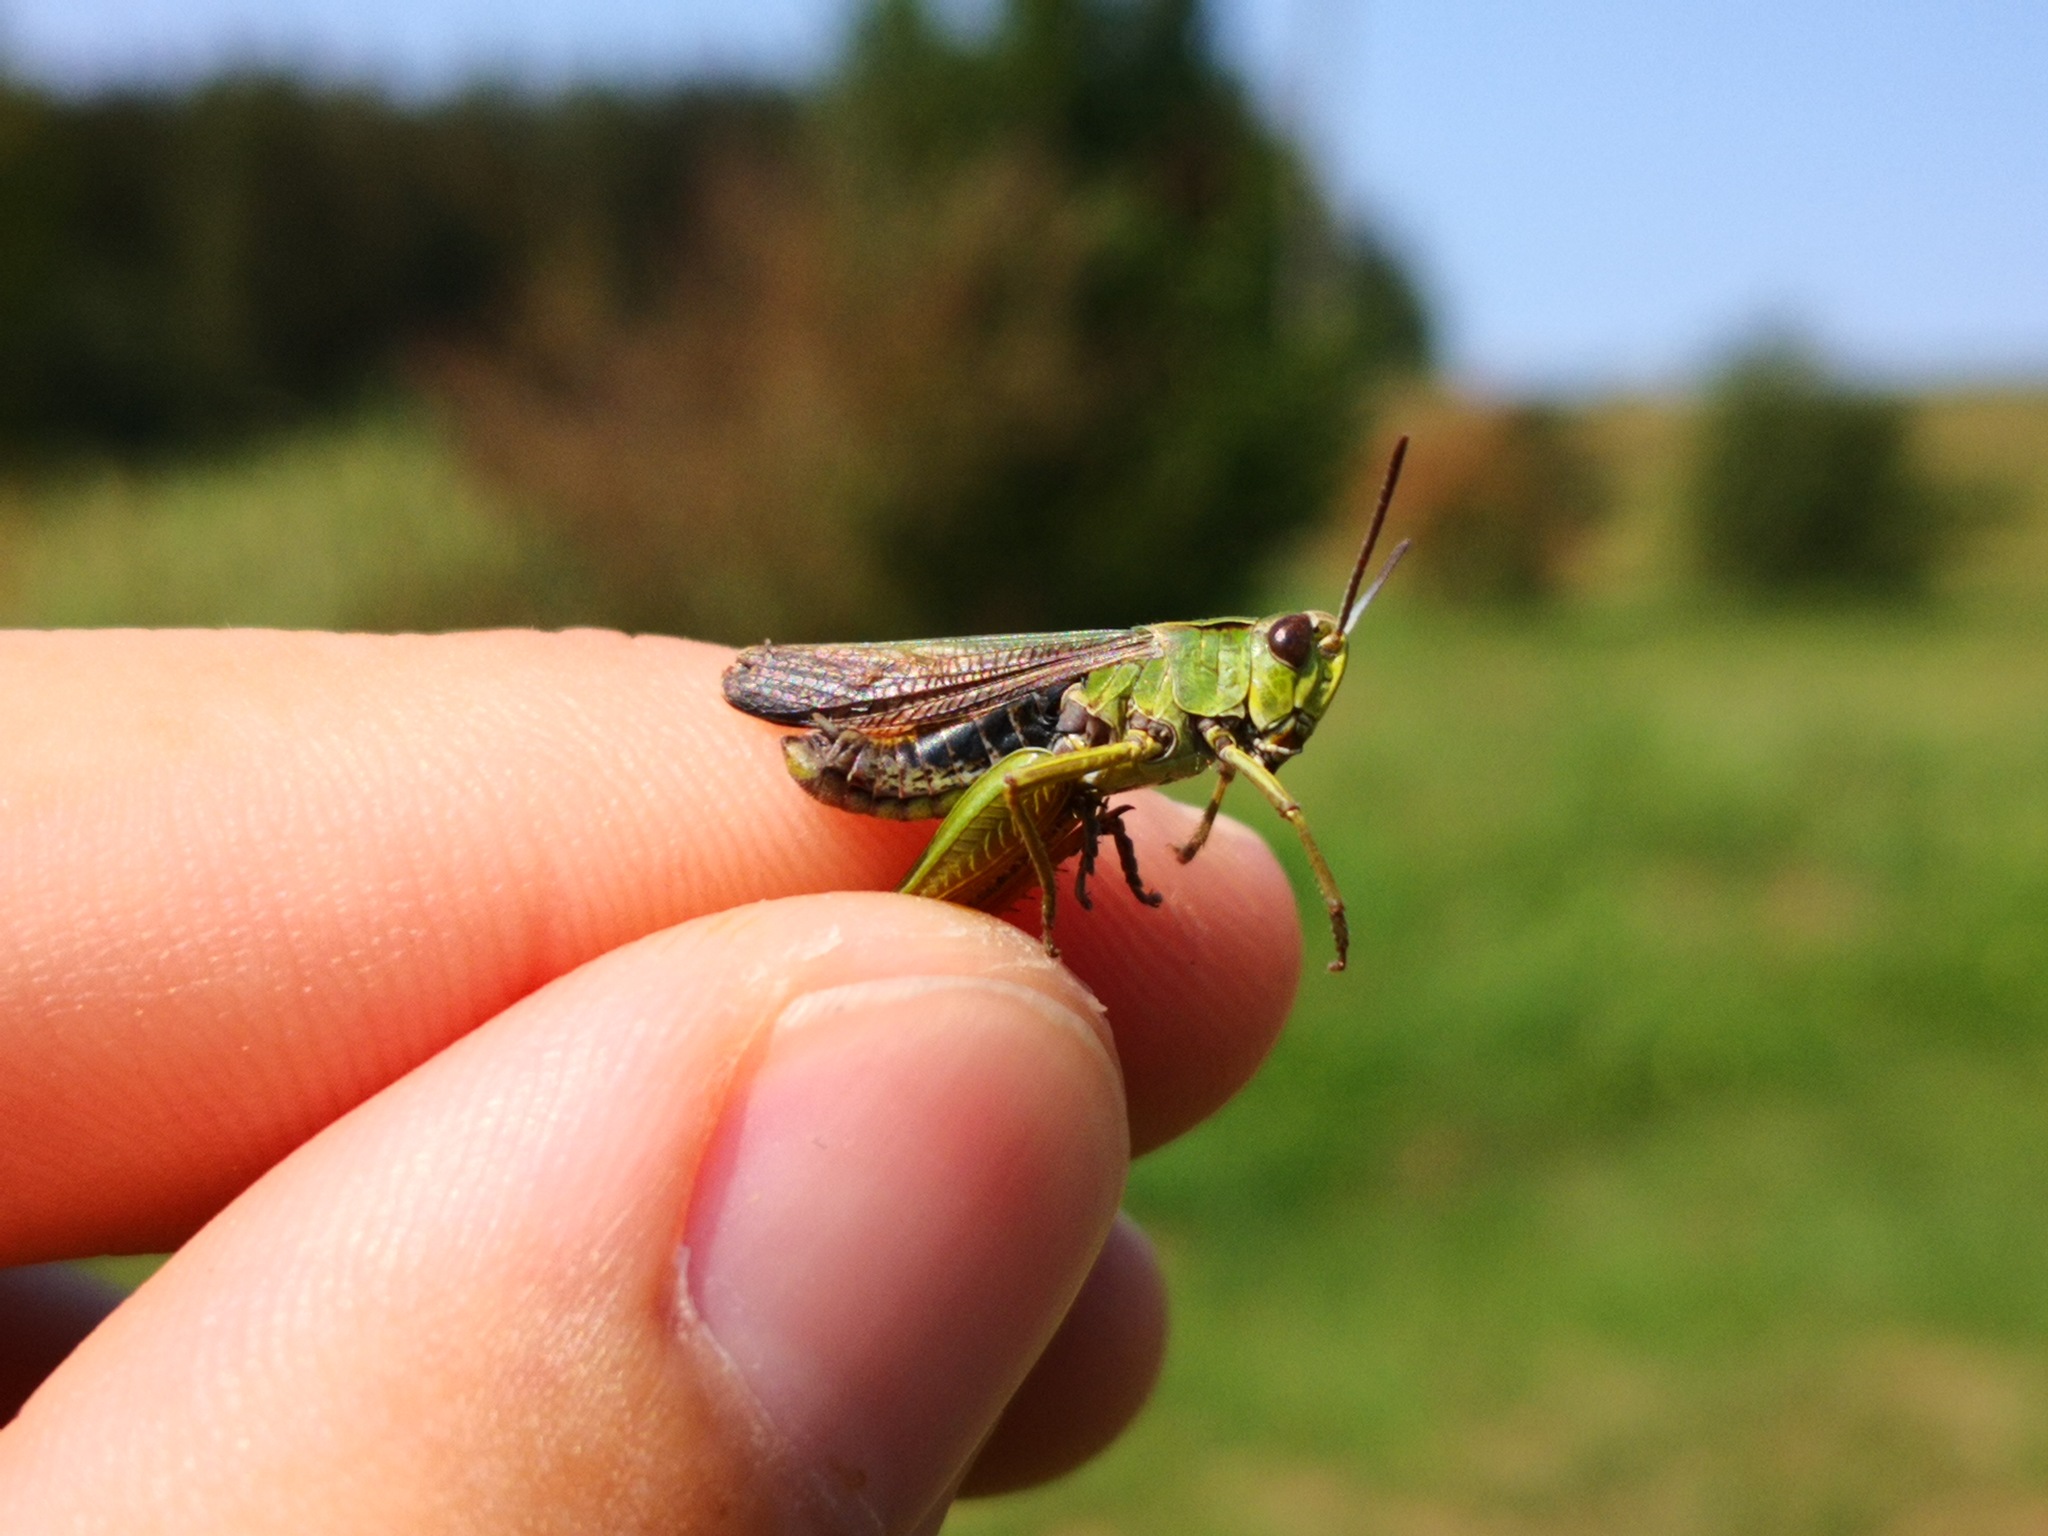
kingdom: Animalia
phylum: Arthropoda
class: Insecta
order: Orthoptera
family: Acrididae
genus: Omocestus
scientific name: Omocestus viridulus
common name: Common green grasshopper
